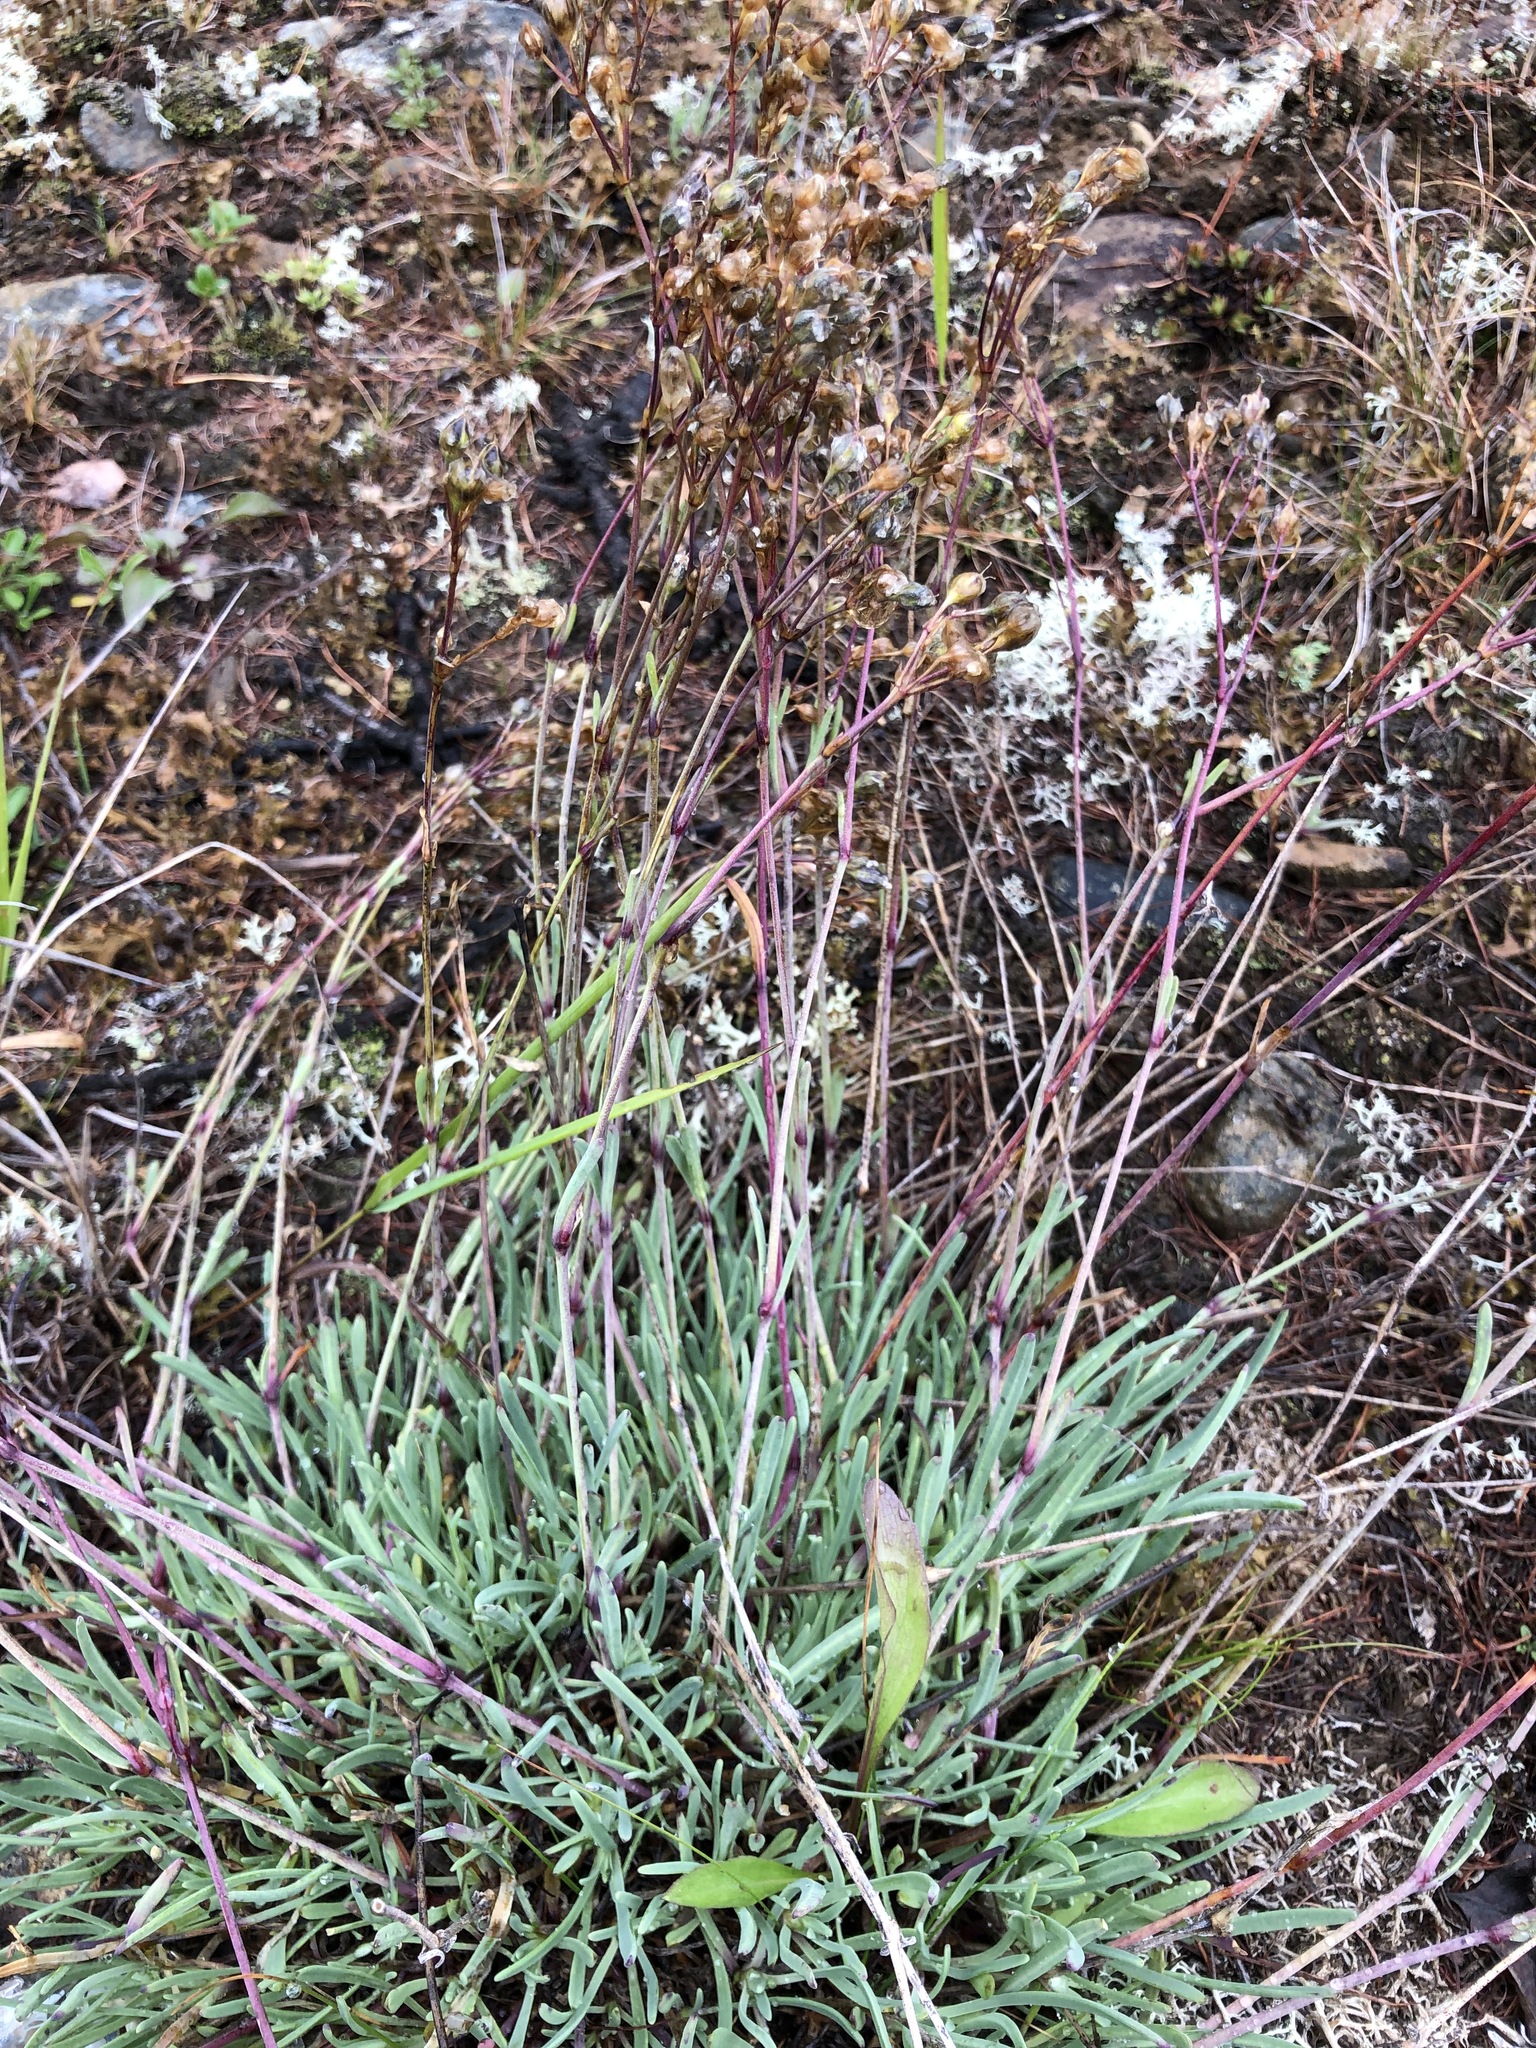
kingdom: Plantae
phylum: Tracheophyta
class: Magnoliopsida
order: Caryophyllales
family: Caryophyllaceae
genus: Gypsophila
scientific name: Gypsophila uralensis
